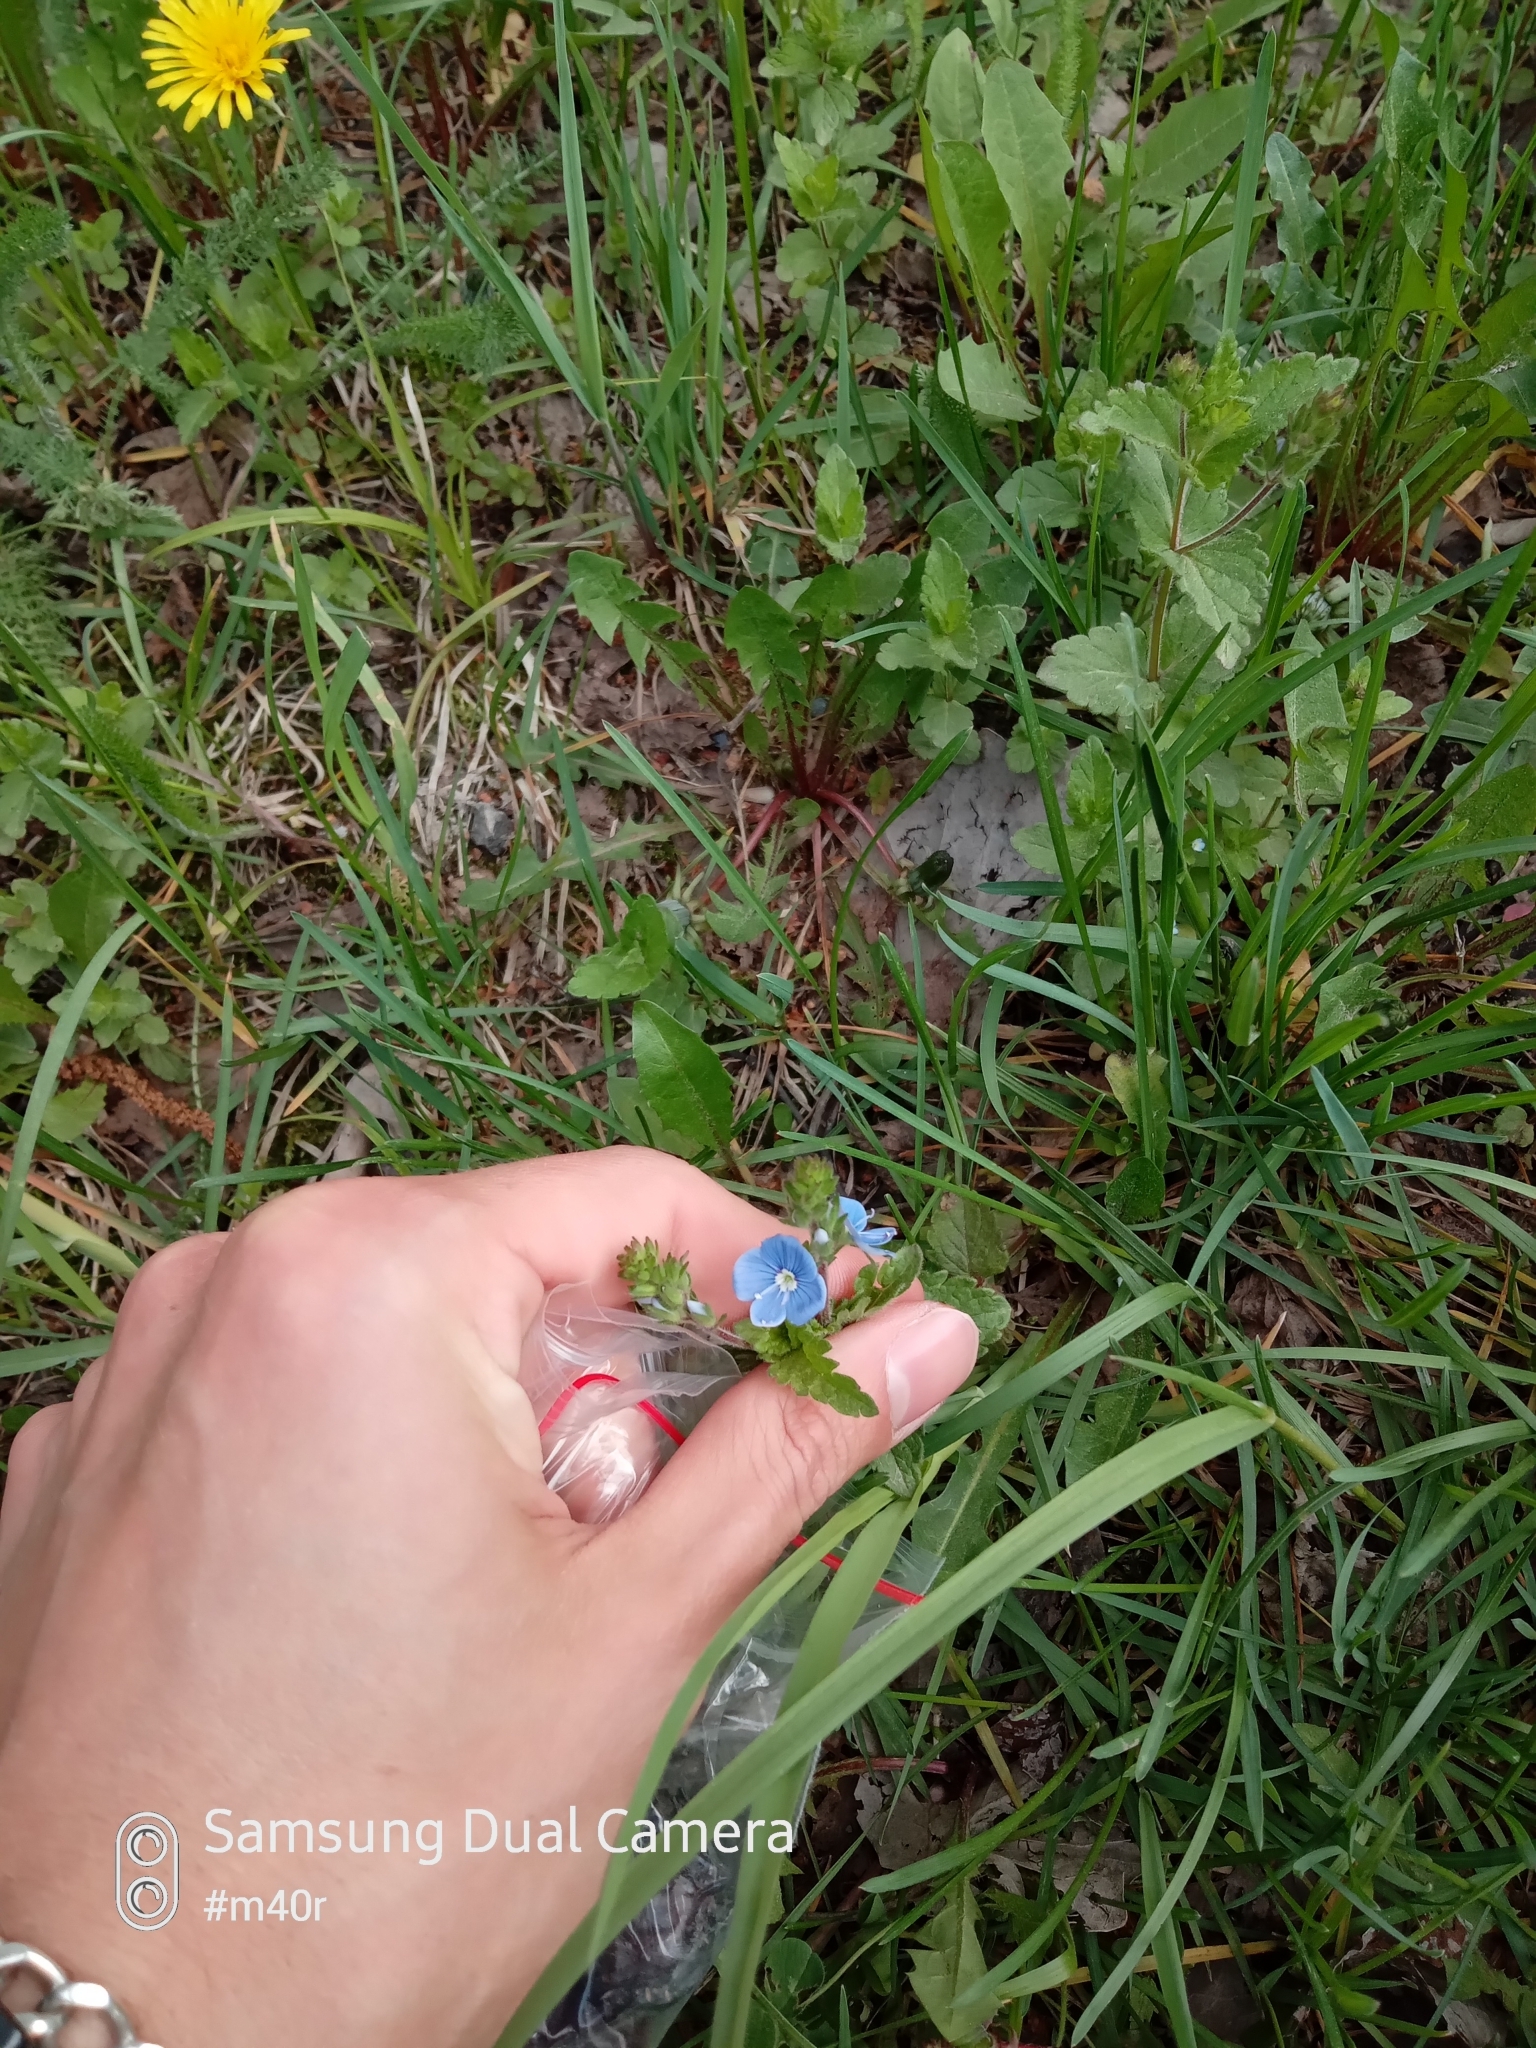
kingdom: Plantae
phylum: Tracheophyta
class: Magnoliopsida
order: Lamiales
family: Plantaginaceae
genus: Veronica
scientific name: Veronica chamaedrys
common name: Germander speedwell
